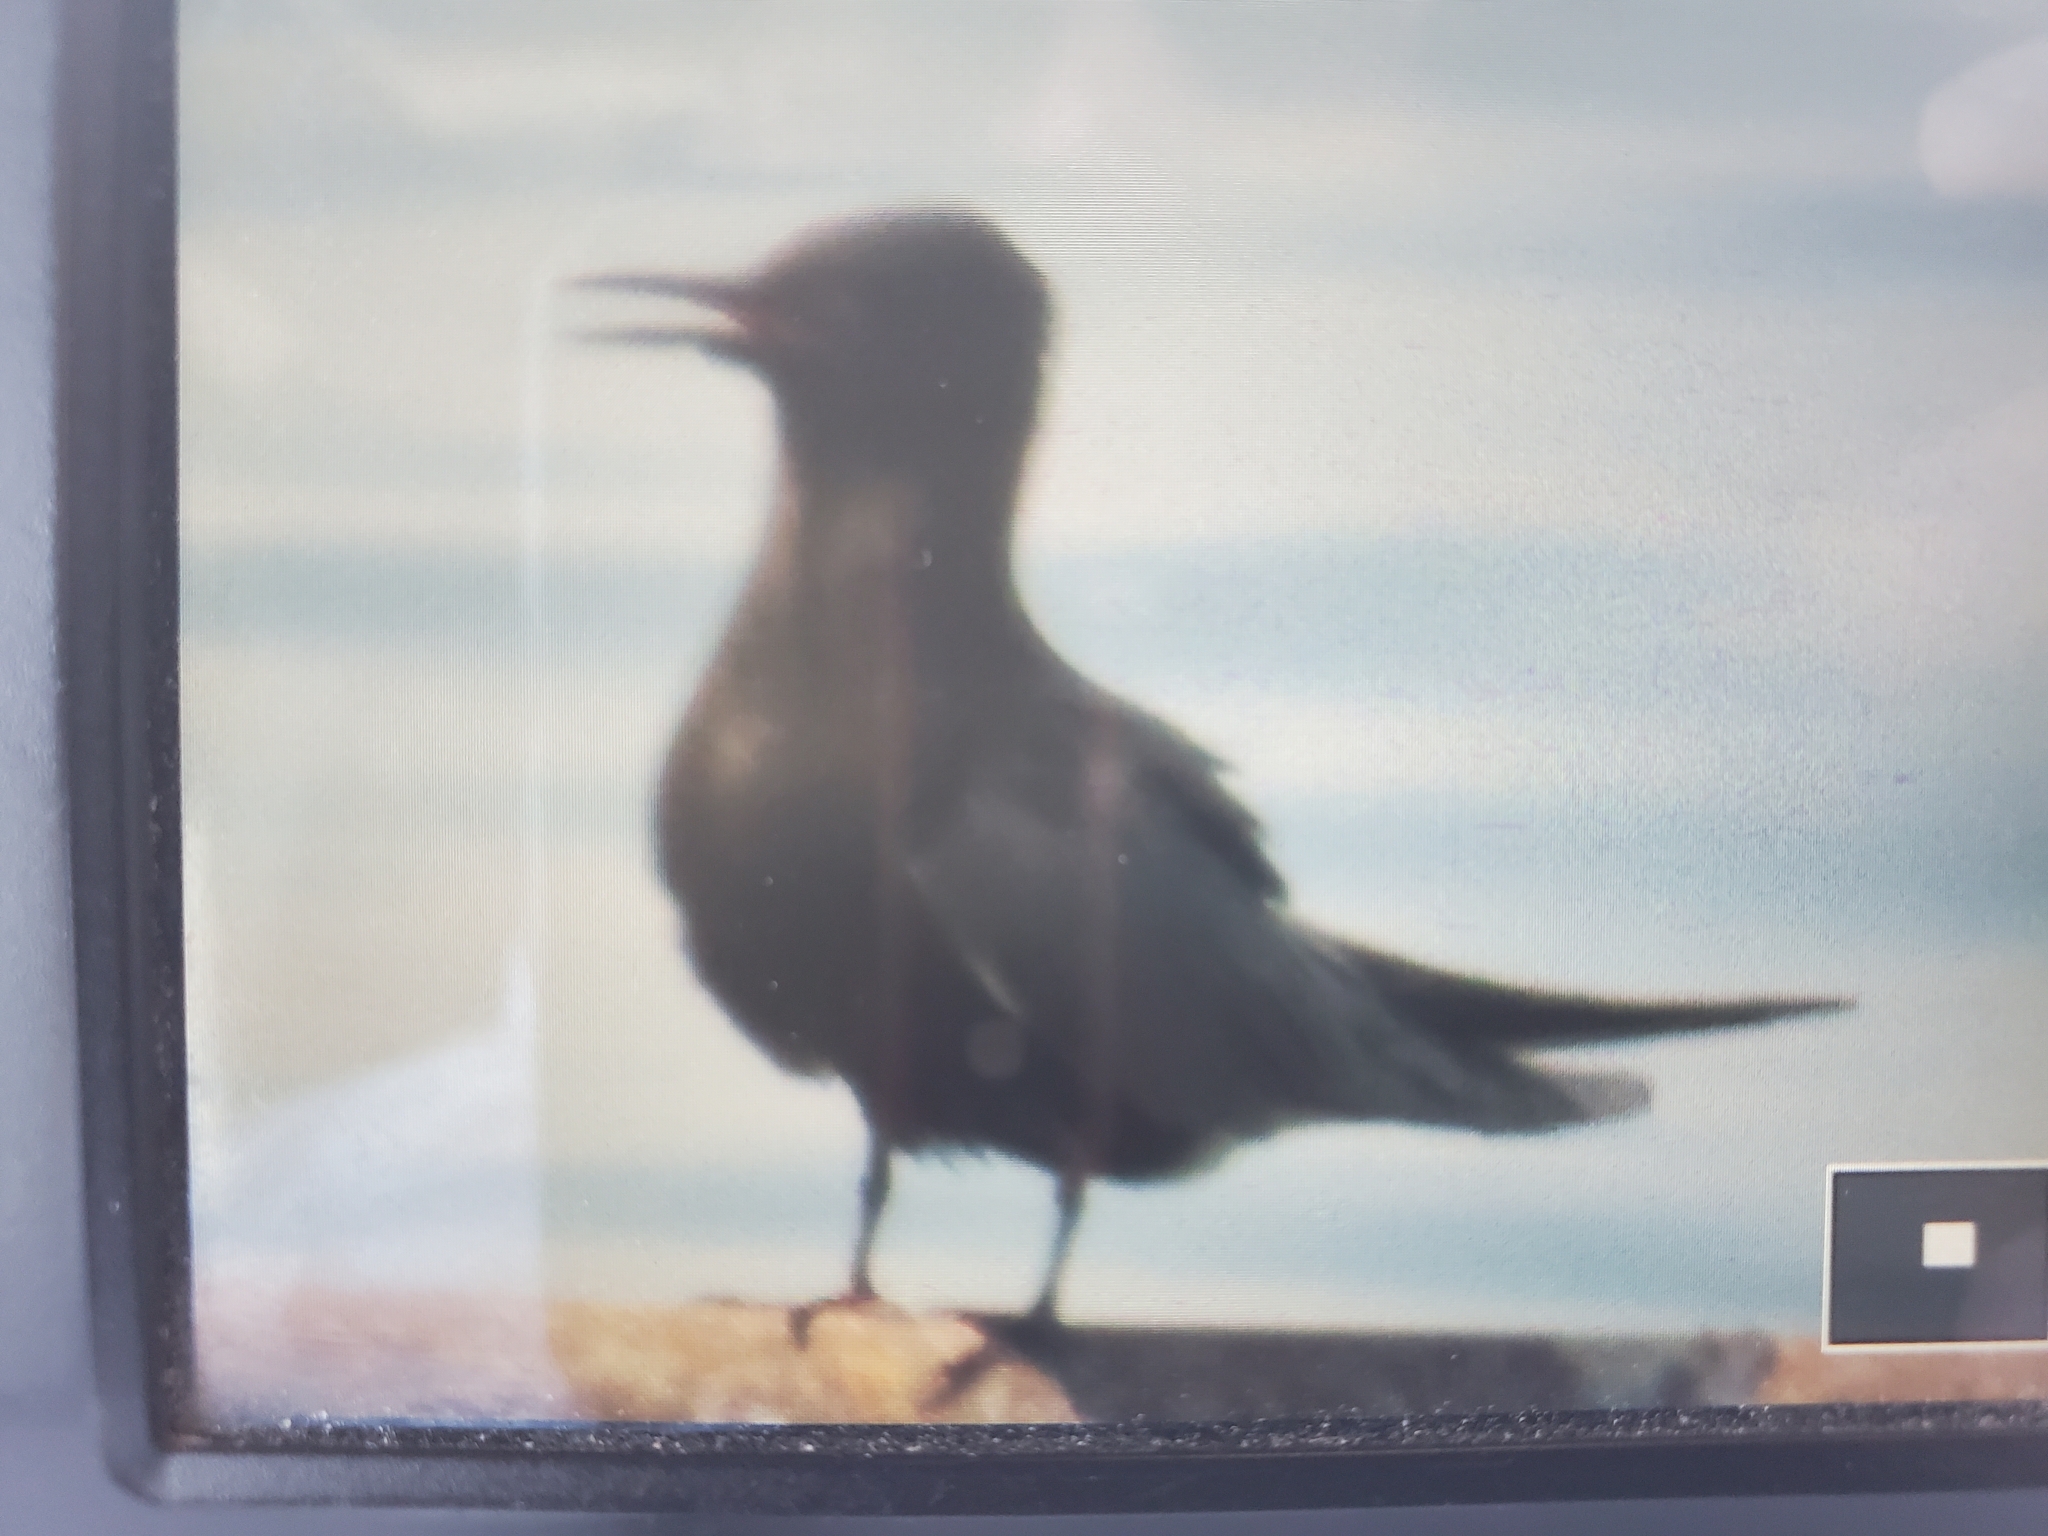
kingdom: Animalia
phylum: Chordata
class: Aves
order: Charadriiformes
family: Laridae
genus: Chlidonias
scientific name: Chlidonias niger
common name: Black tern
